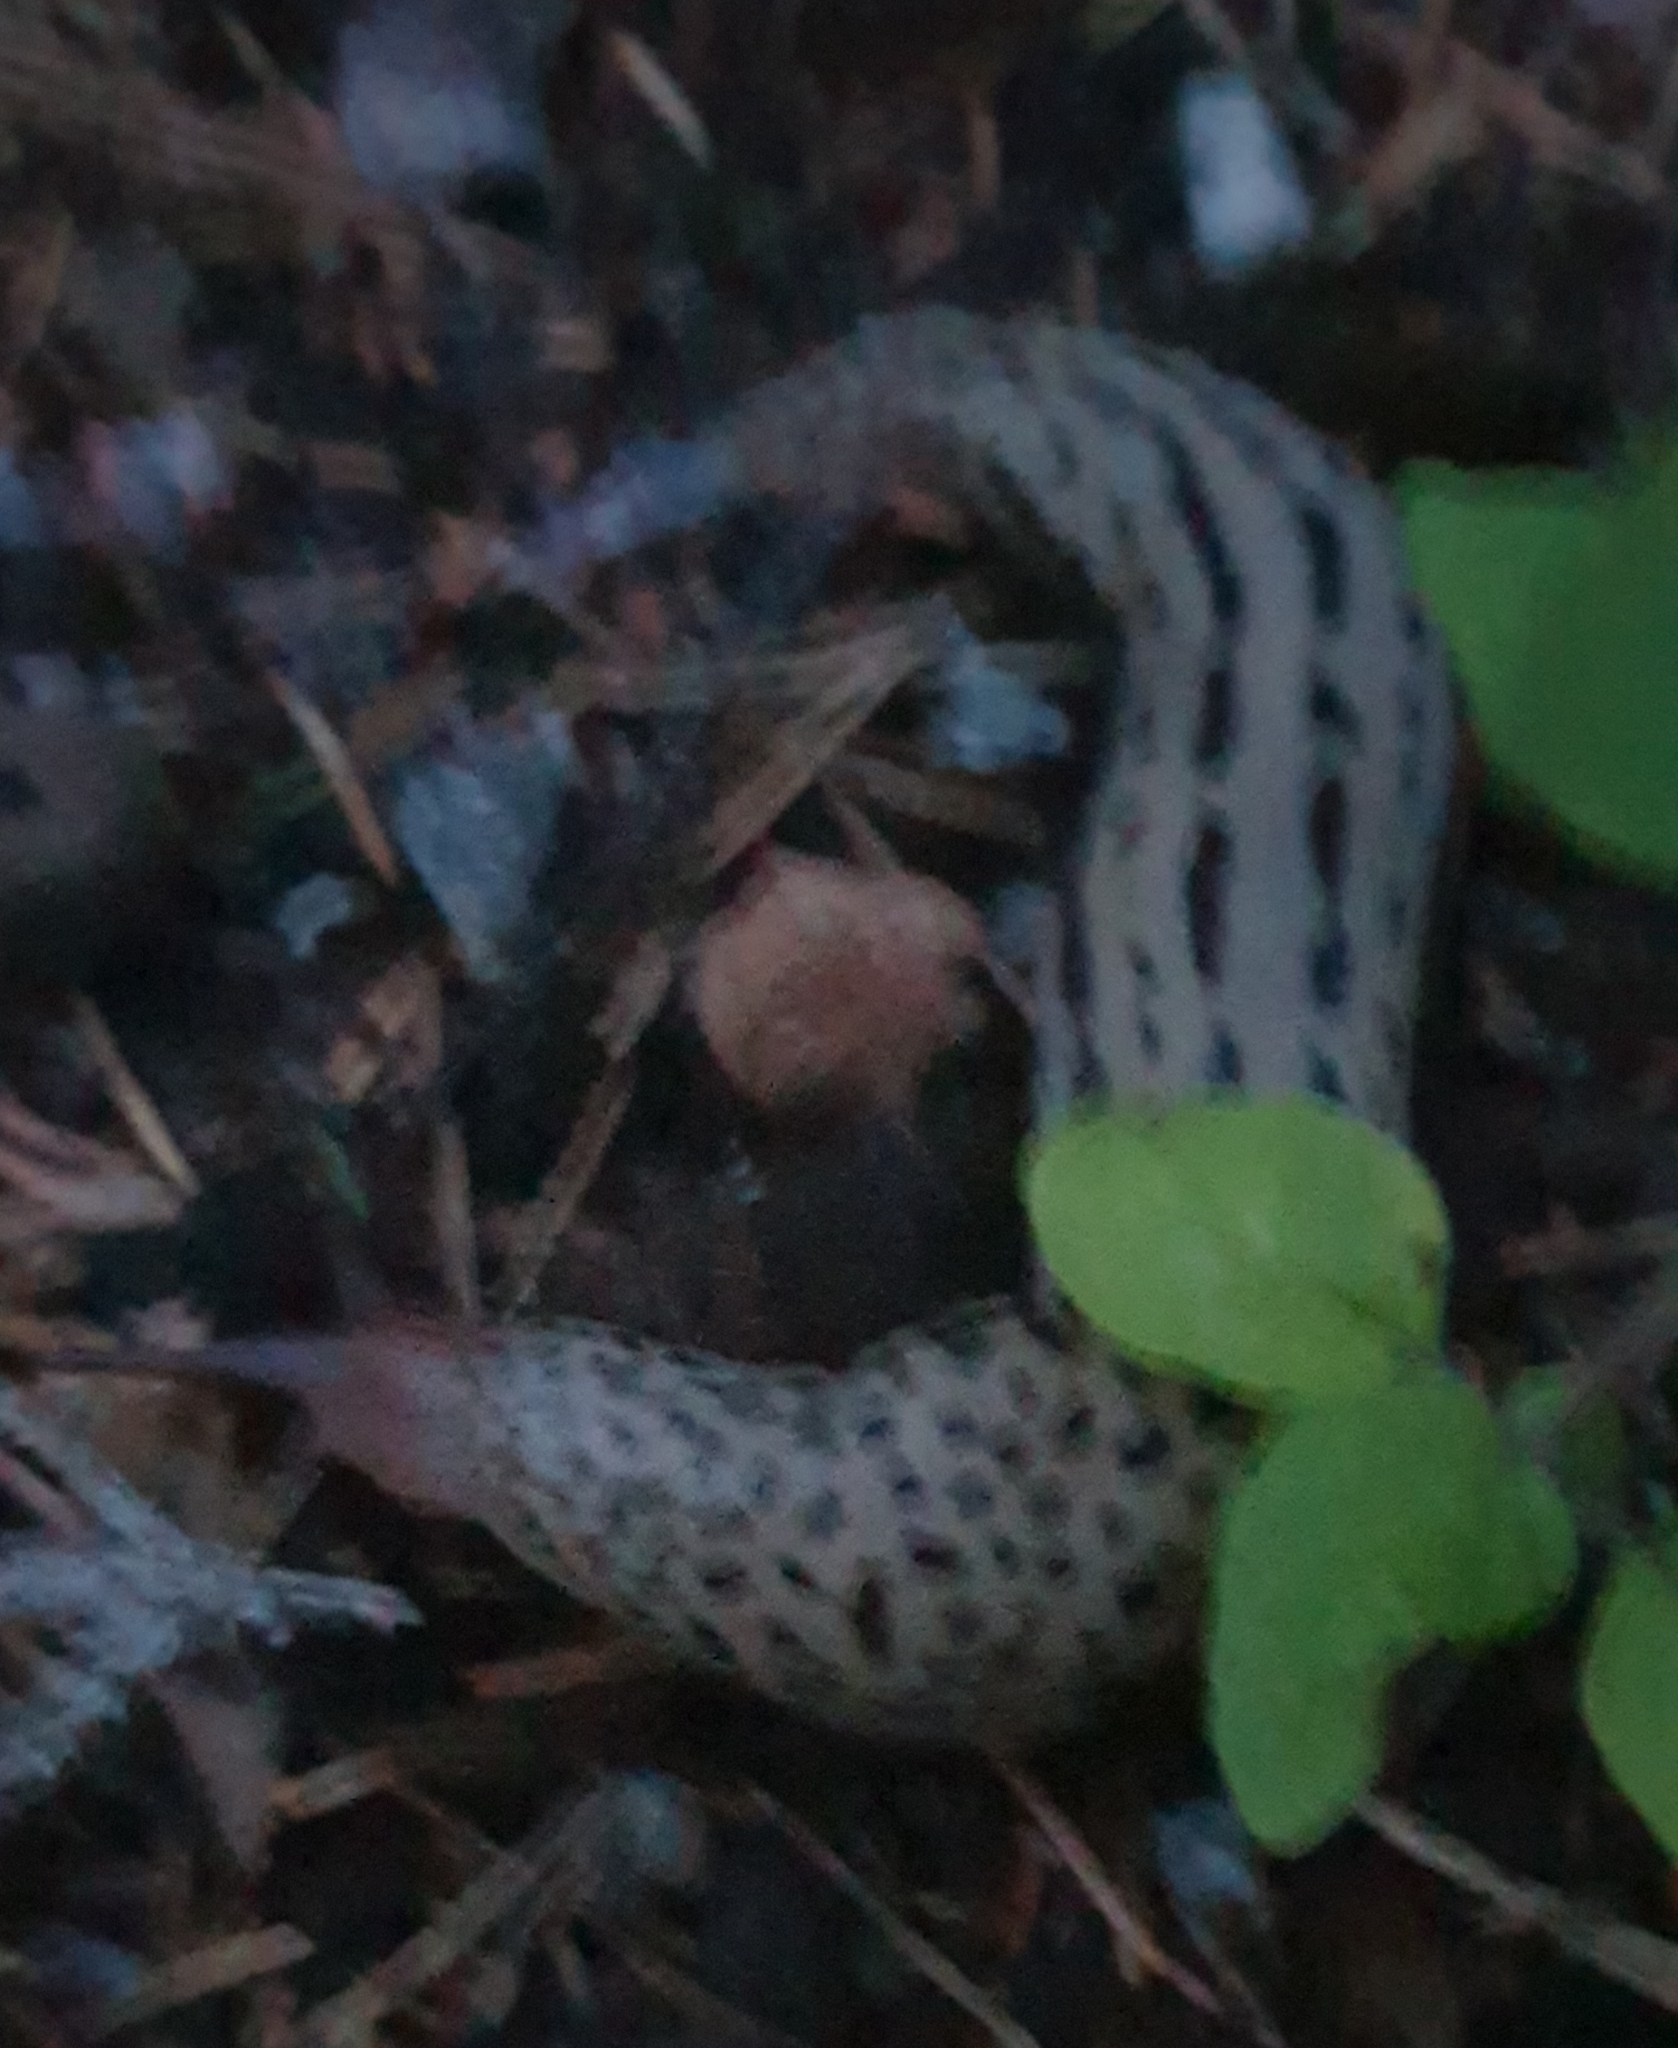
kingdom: Animalia
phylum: Mollusca
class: Gastropoda
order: Stylommatophora
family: Limacidae
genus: Limax
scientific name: Limax maximus
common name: Great grey slug
